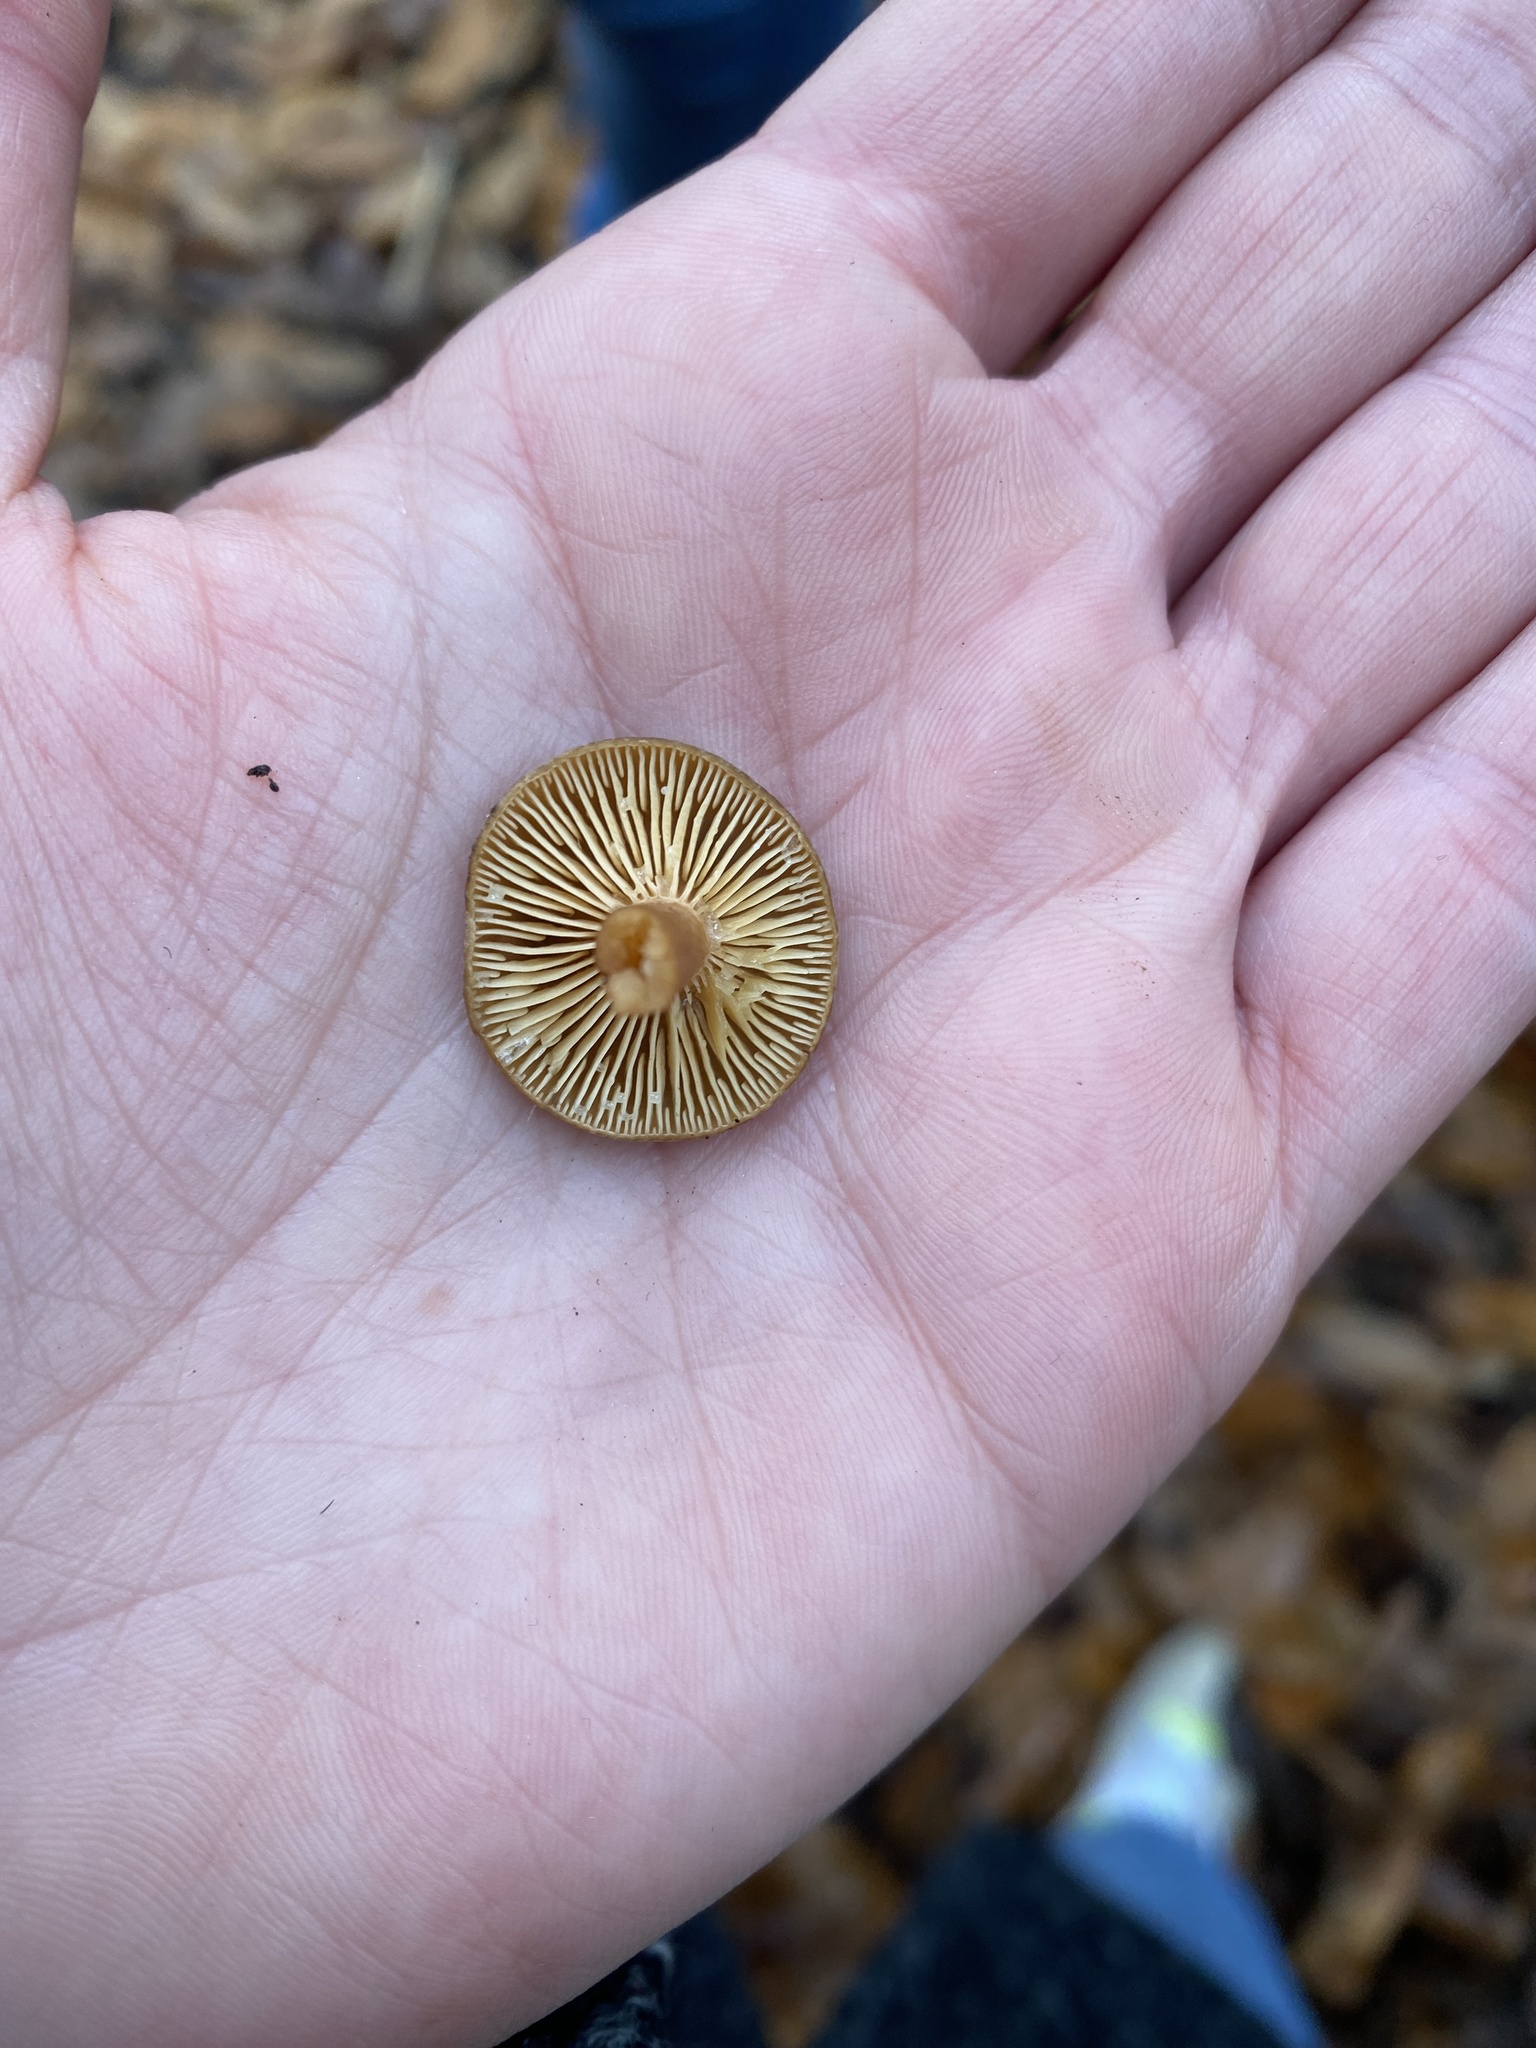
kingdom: Fungi
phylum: Basidiomycota
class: Agaricomycetes
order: Russulales
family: Russulaceae
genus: Lactarius
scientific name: Lactarius serifluus
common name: Watery milk-cap
